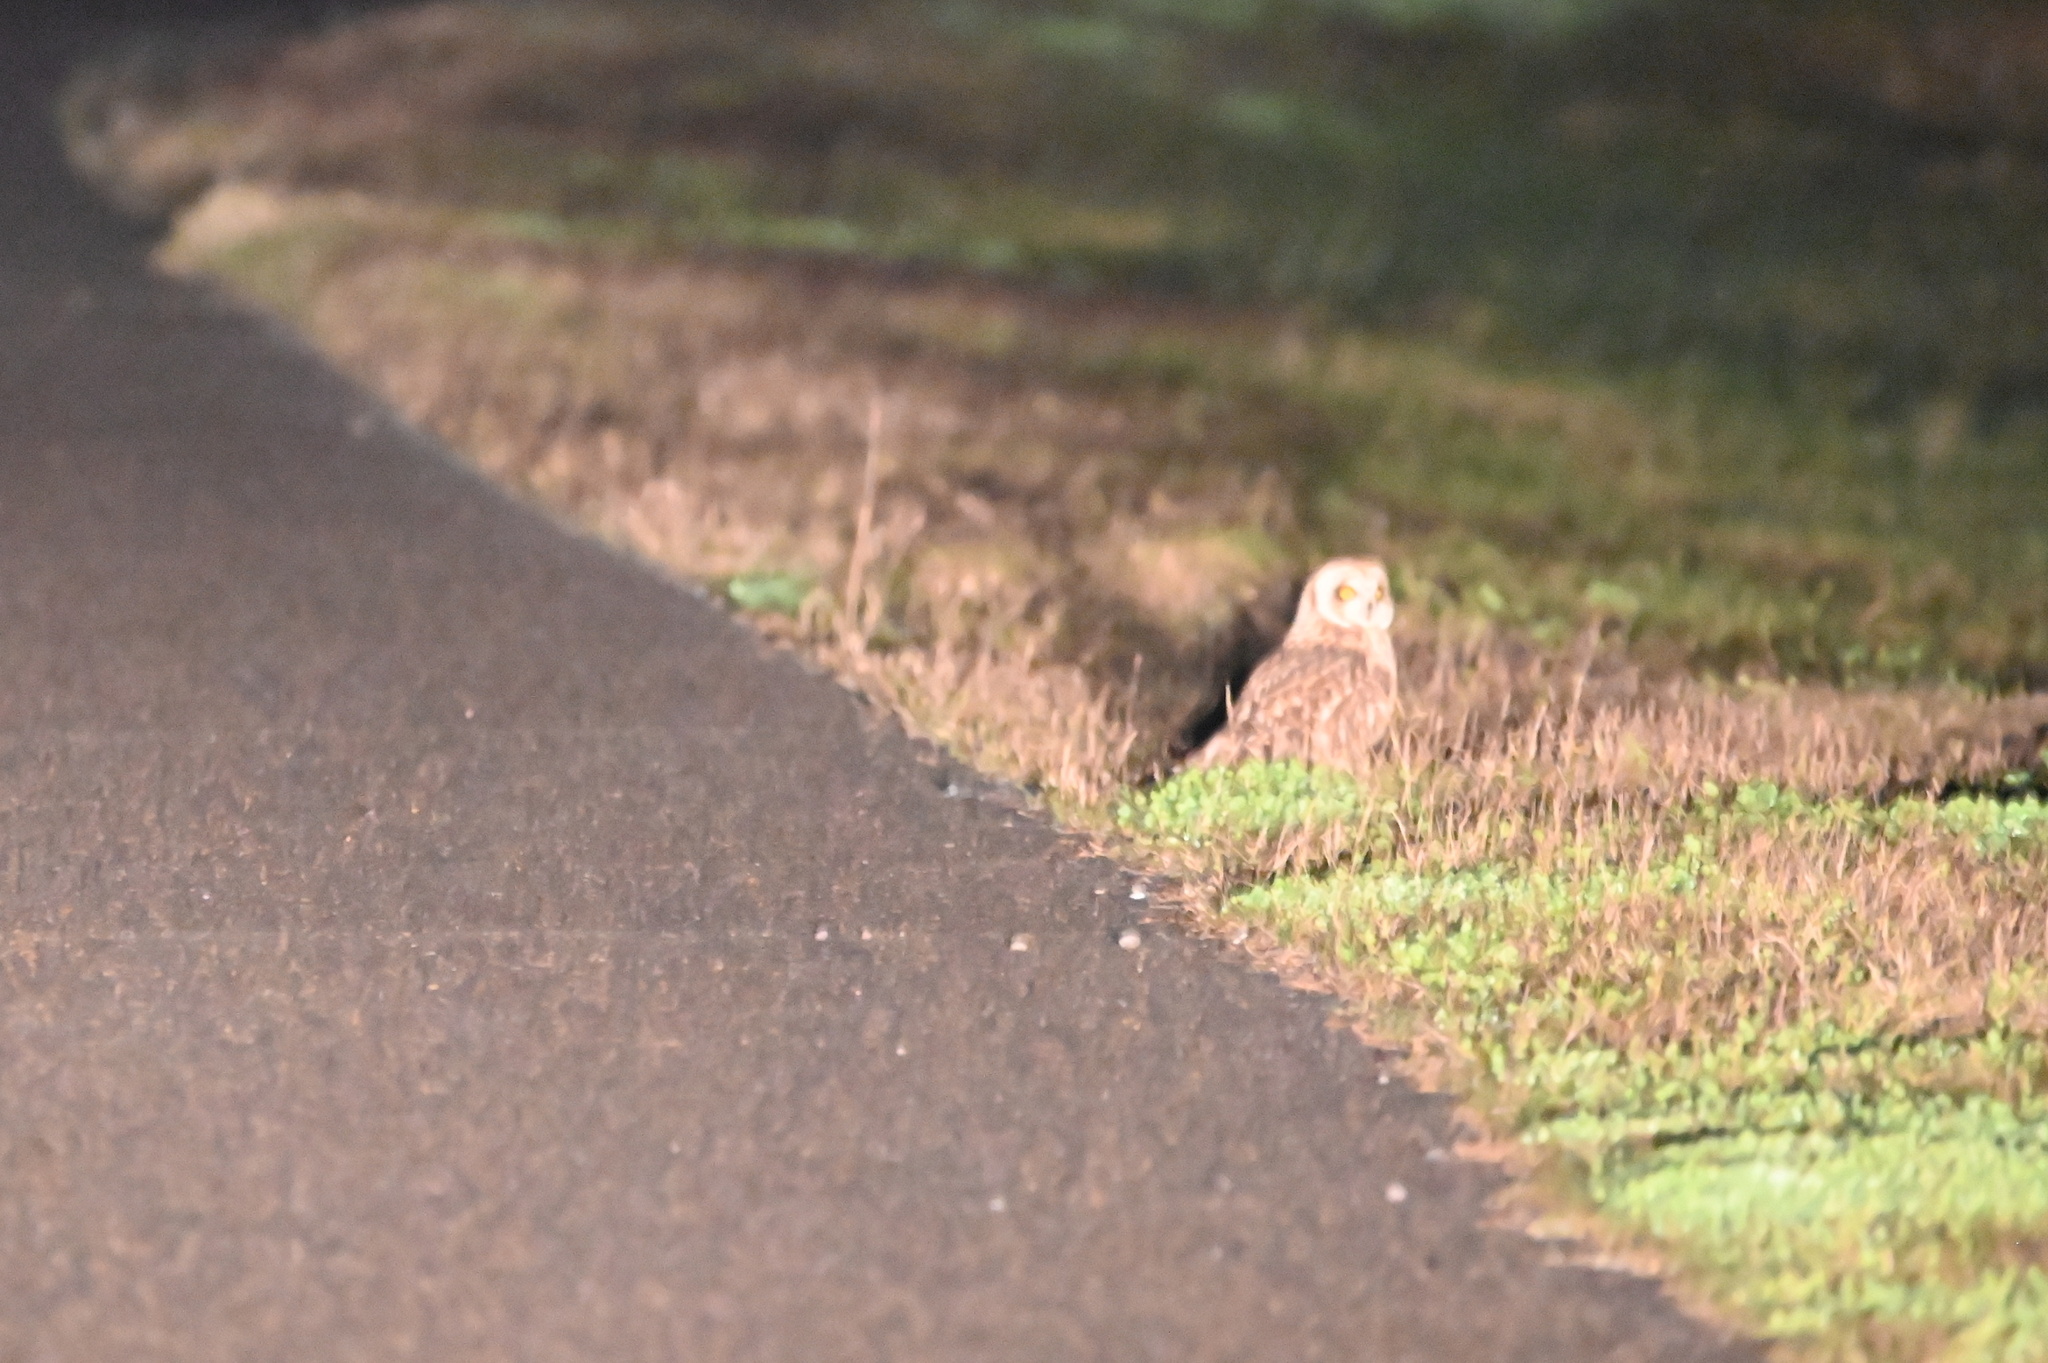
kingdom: Animalia
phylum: Chordata
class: Aves
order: Strigiformes
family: Strigidae
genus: Asio
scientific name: Asio flammeus
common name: Short-eared owl
